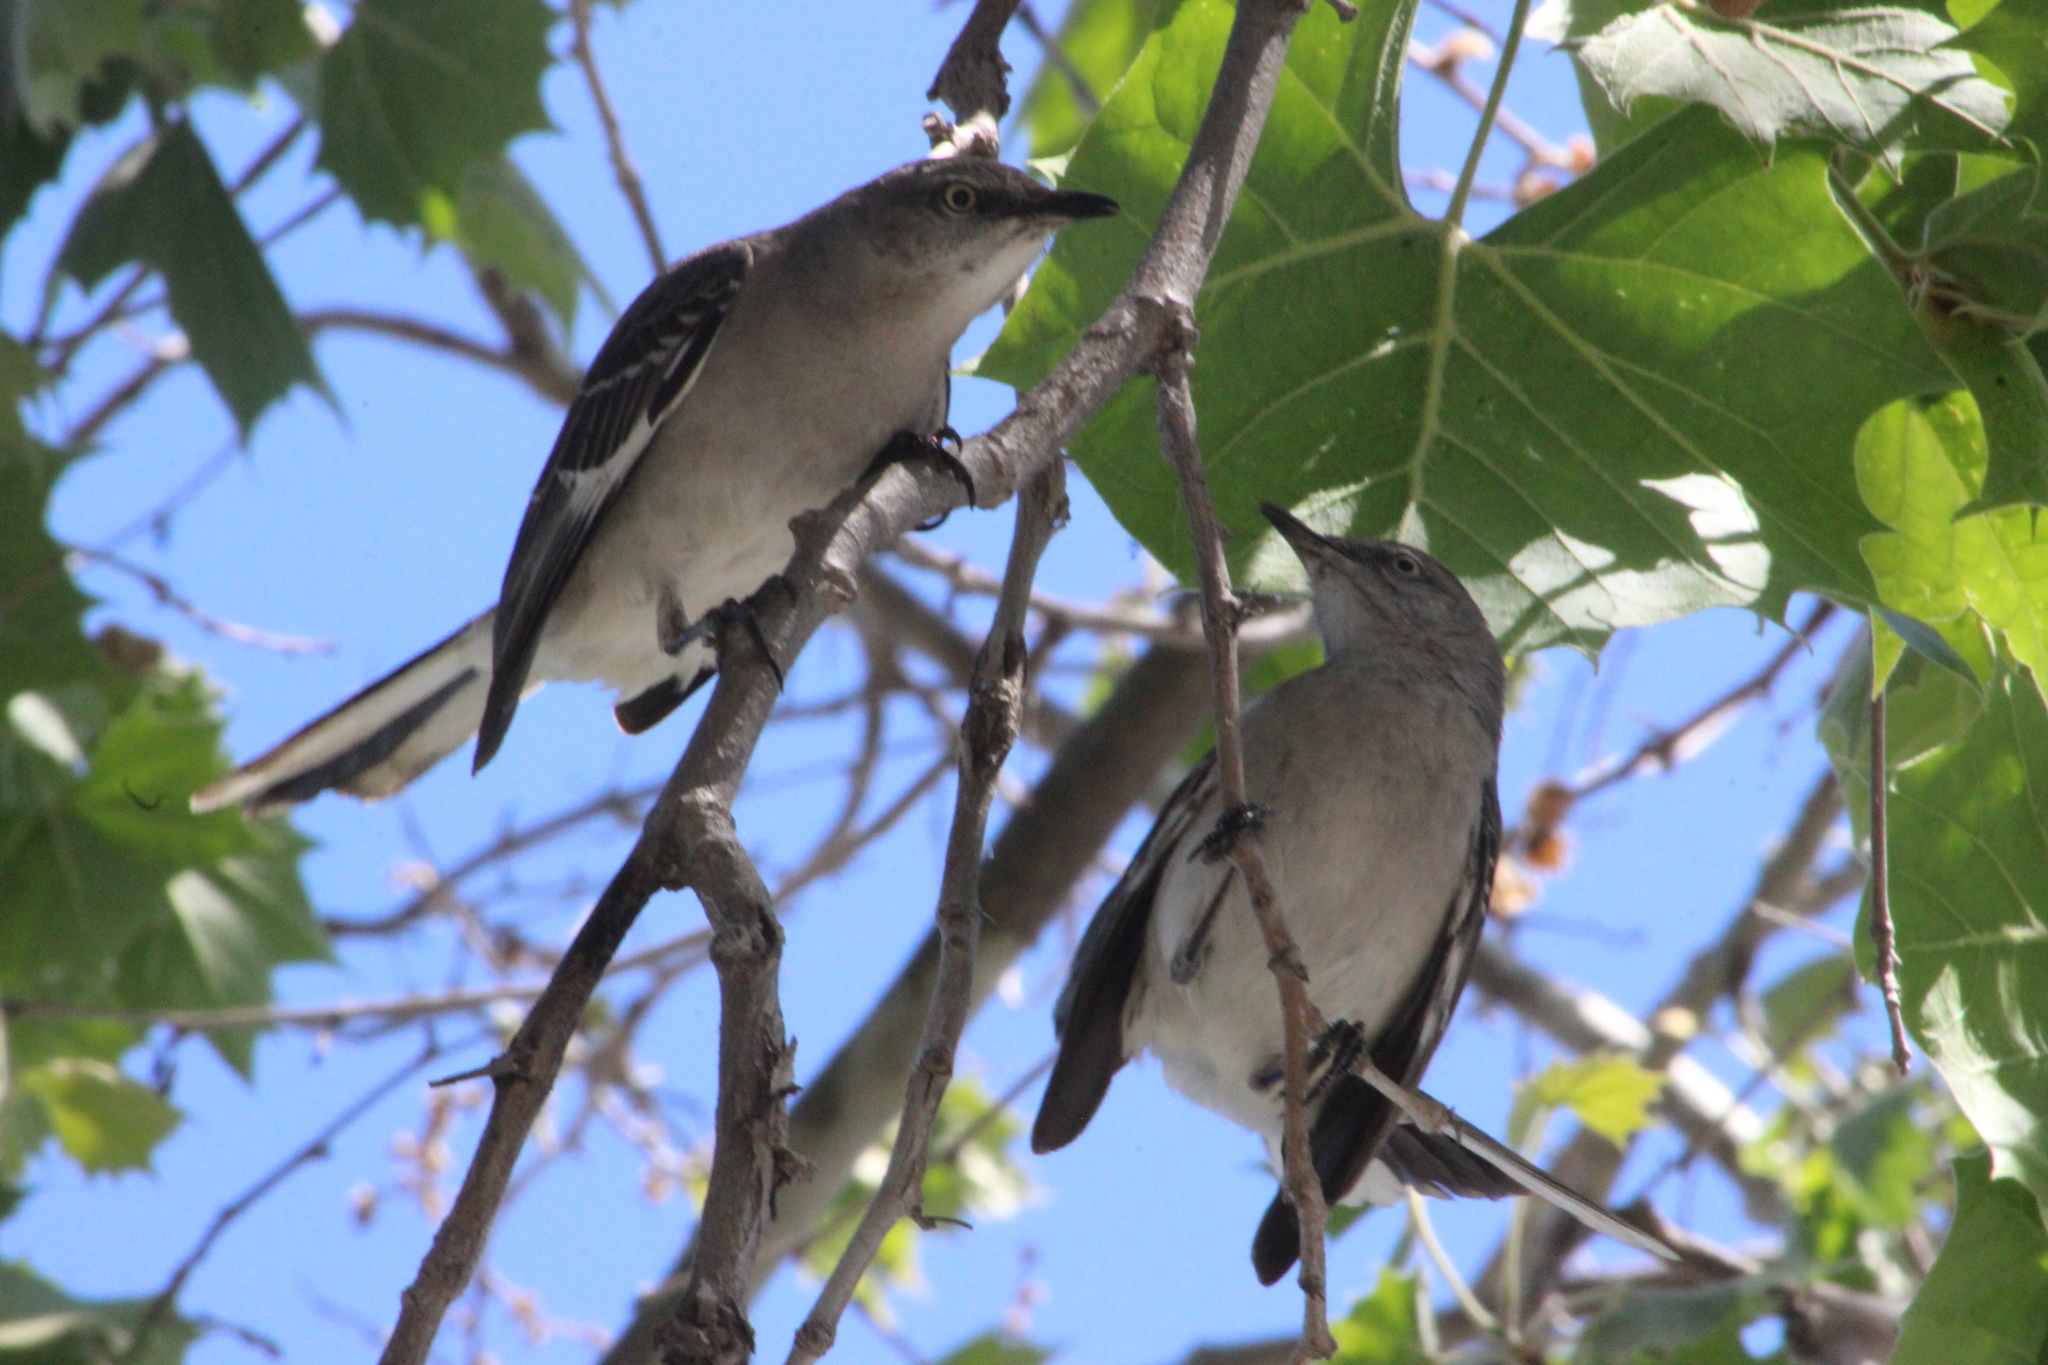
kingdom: Animalia
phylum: Chordata
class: Aves
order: Passeriformes
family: Mimidae
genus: Mimus
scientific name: Mimus polyglottos
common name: Northern mockingbird
